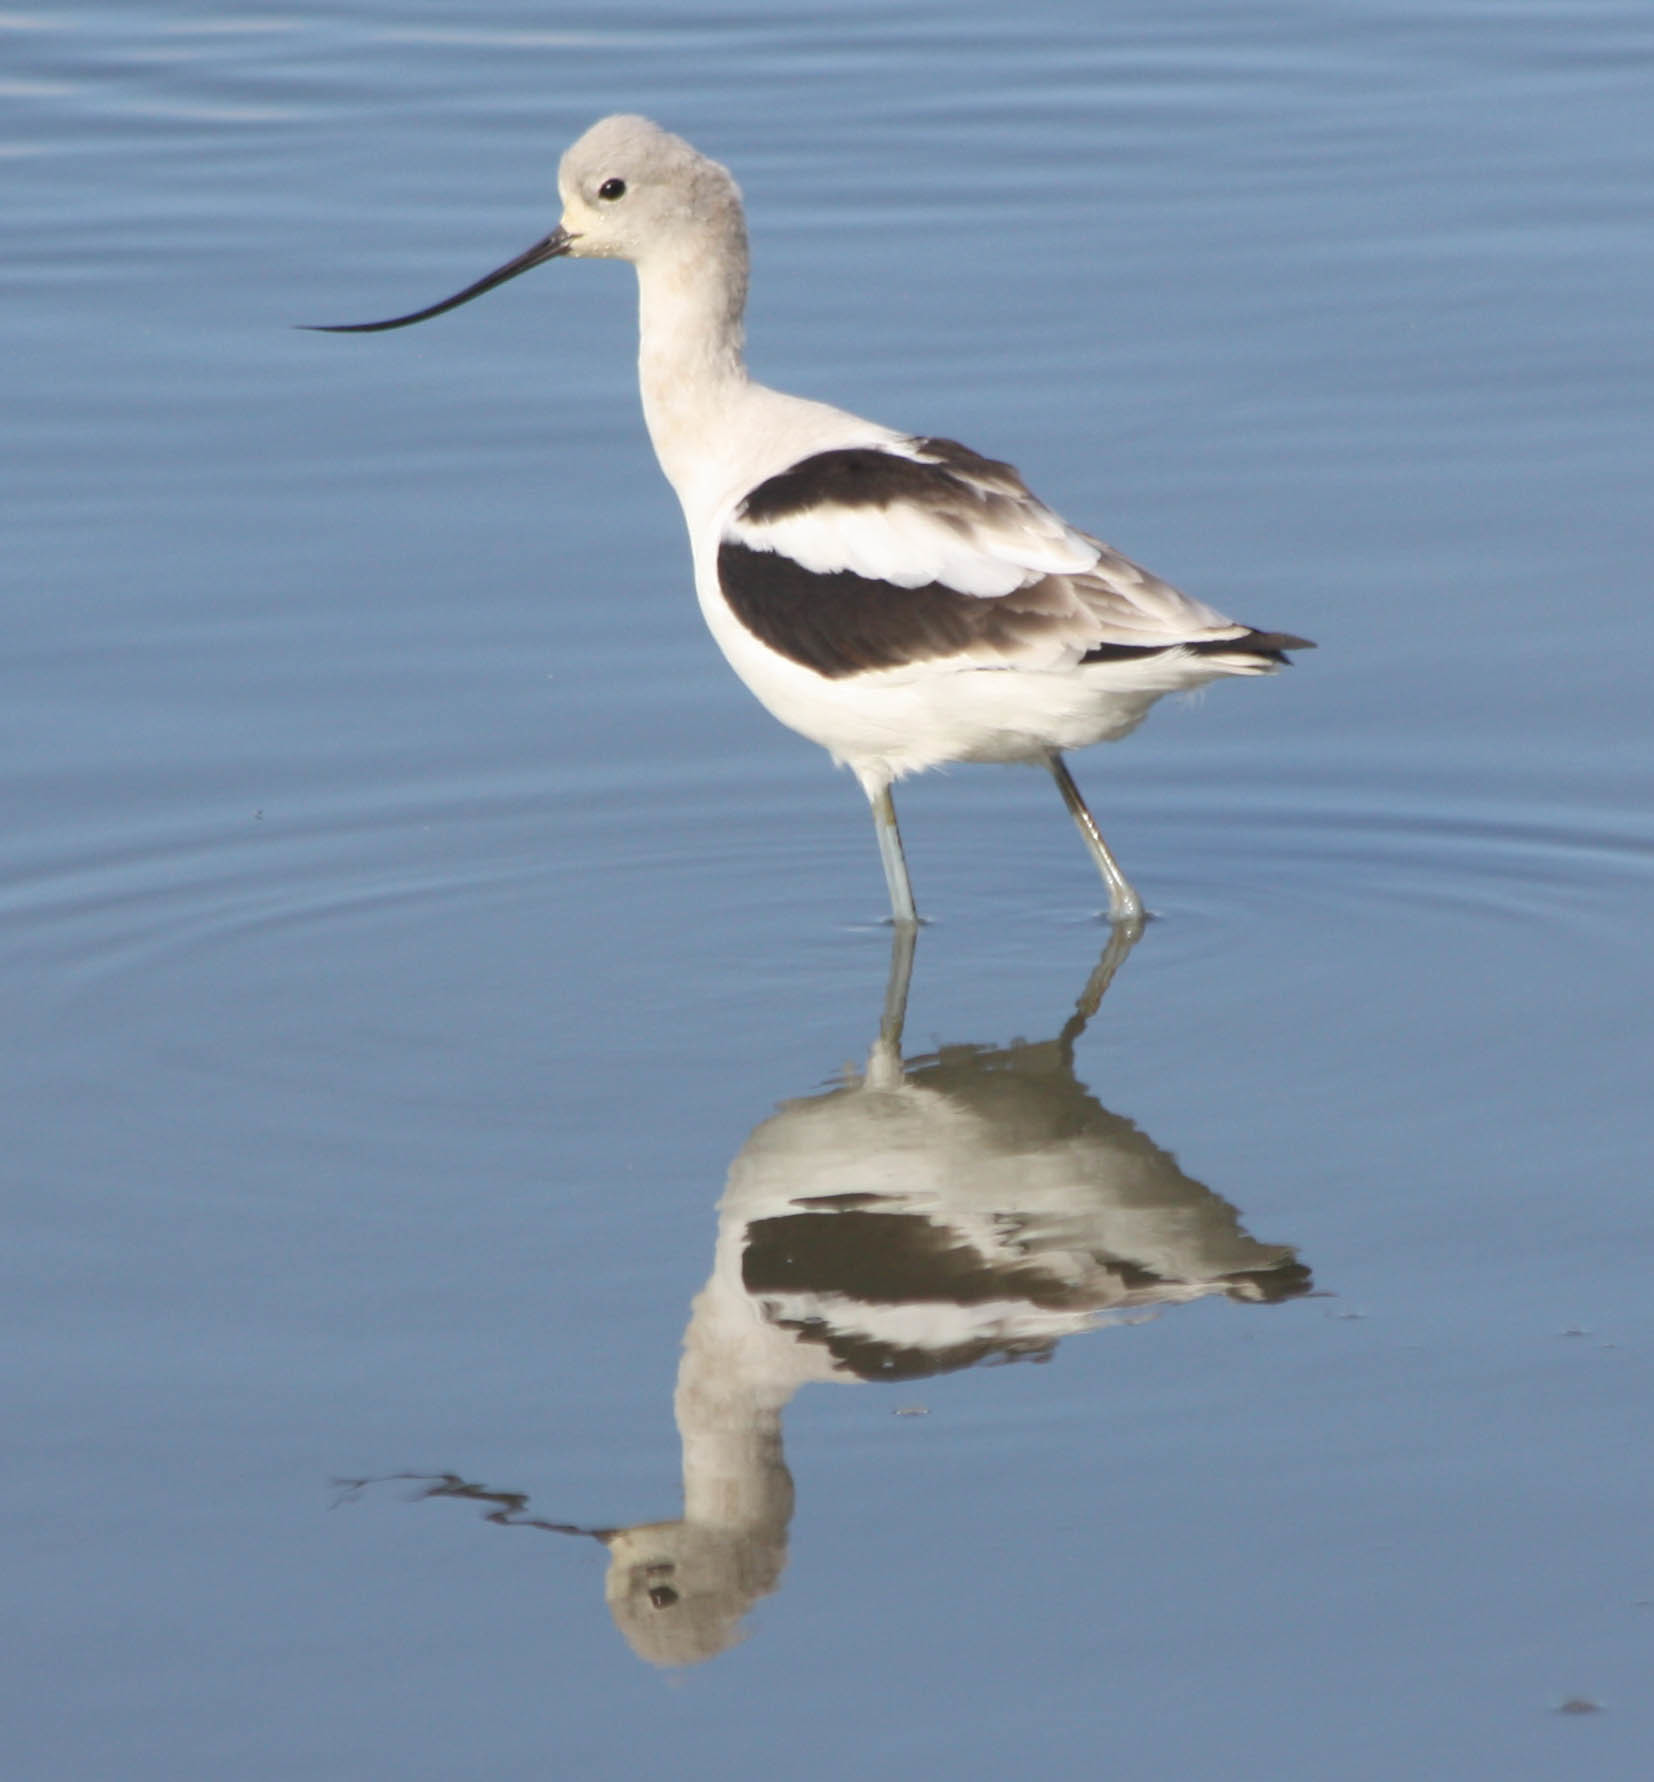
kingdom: Animalia
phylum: Chordata
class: Aves
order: Charadriiformes
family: Recurvirostridae
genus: Recurvirostra
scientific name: Recurvirostra americana
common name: American avocet
